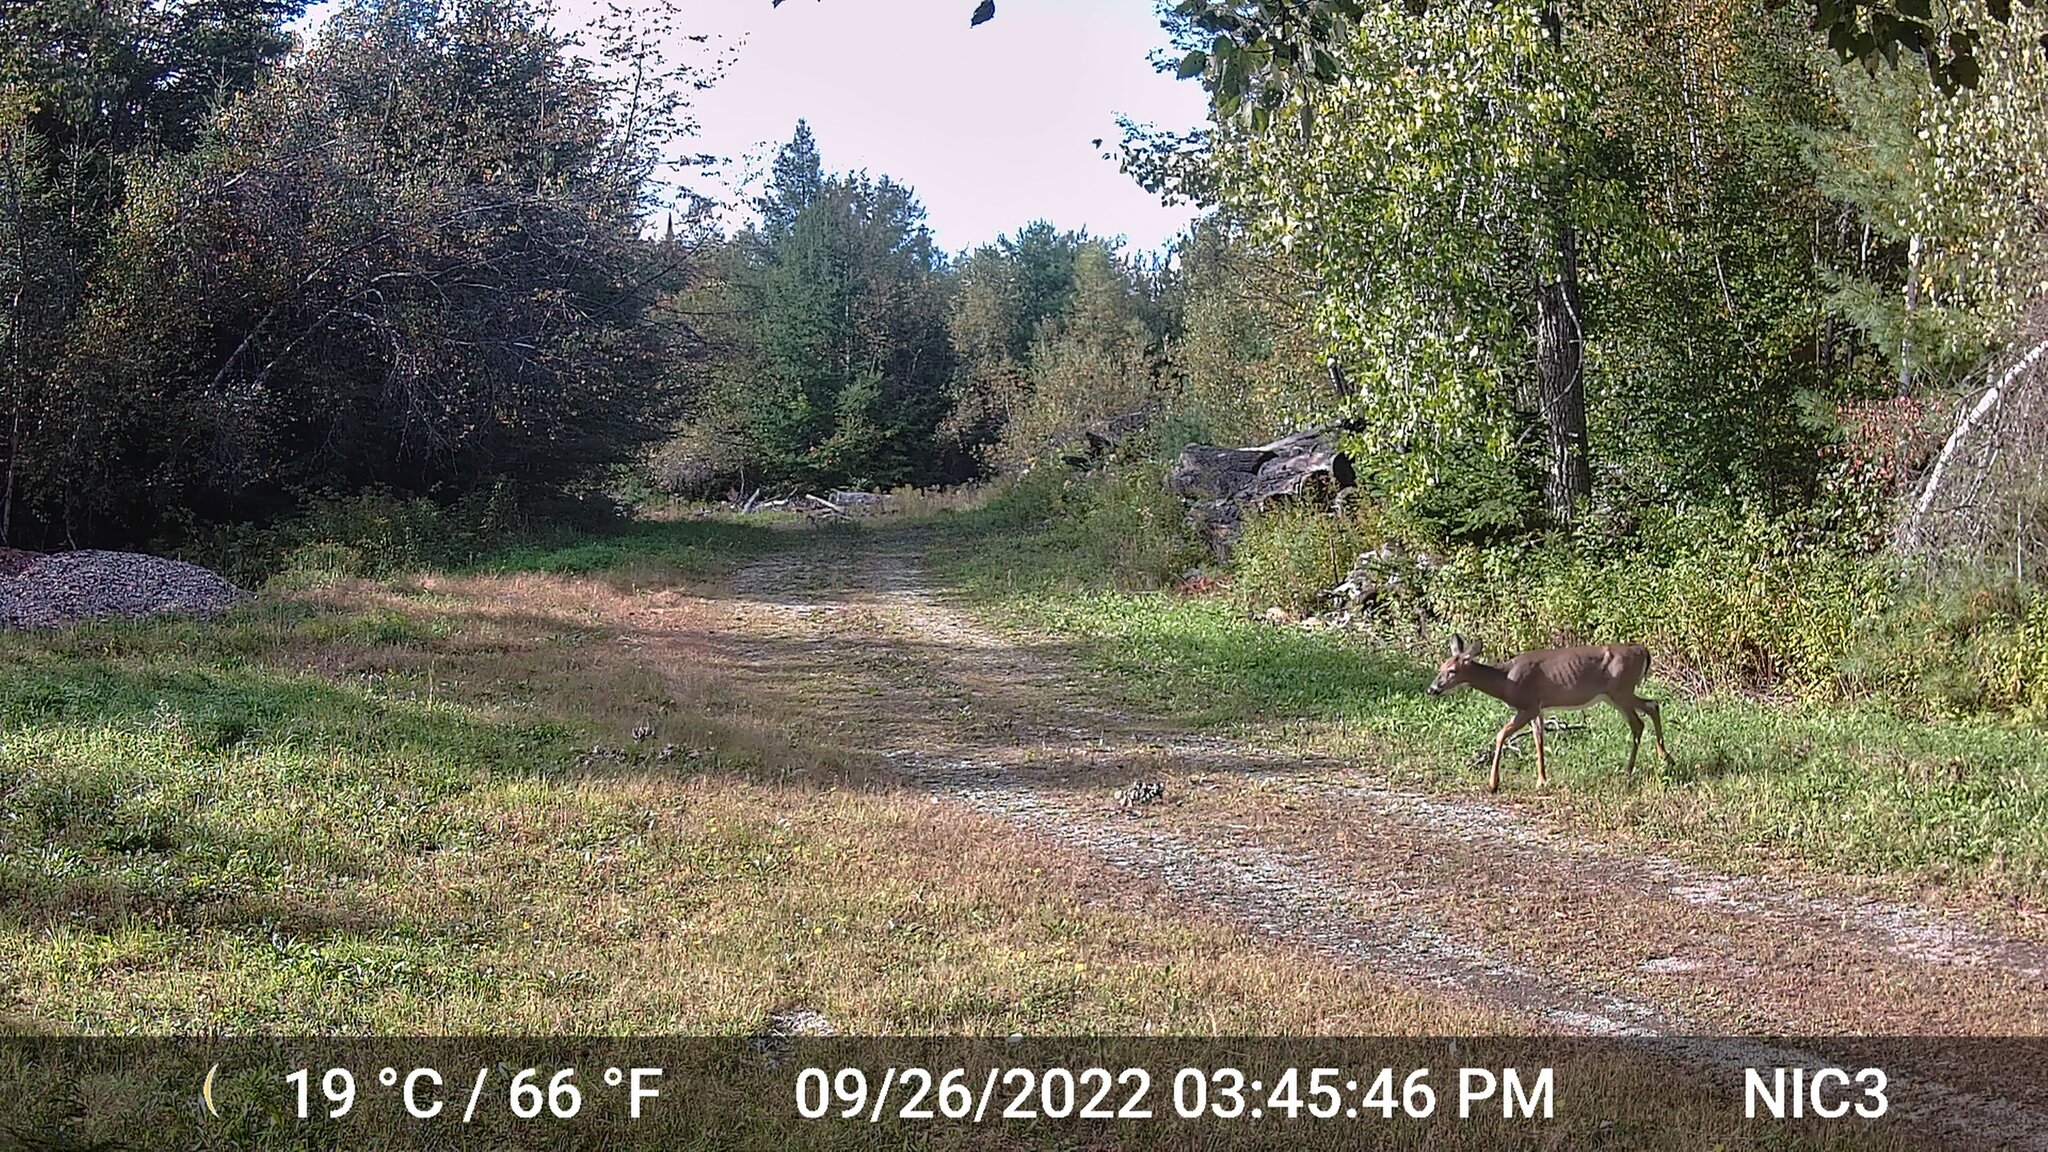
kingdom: Animalia
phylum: Chordata
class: Mammalia
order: Artiodactyla
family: Cervidae
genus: Odocoileus
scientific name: Odocoileus virginianus
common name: White-tailed deer
